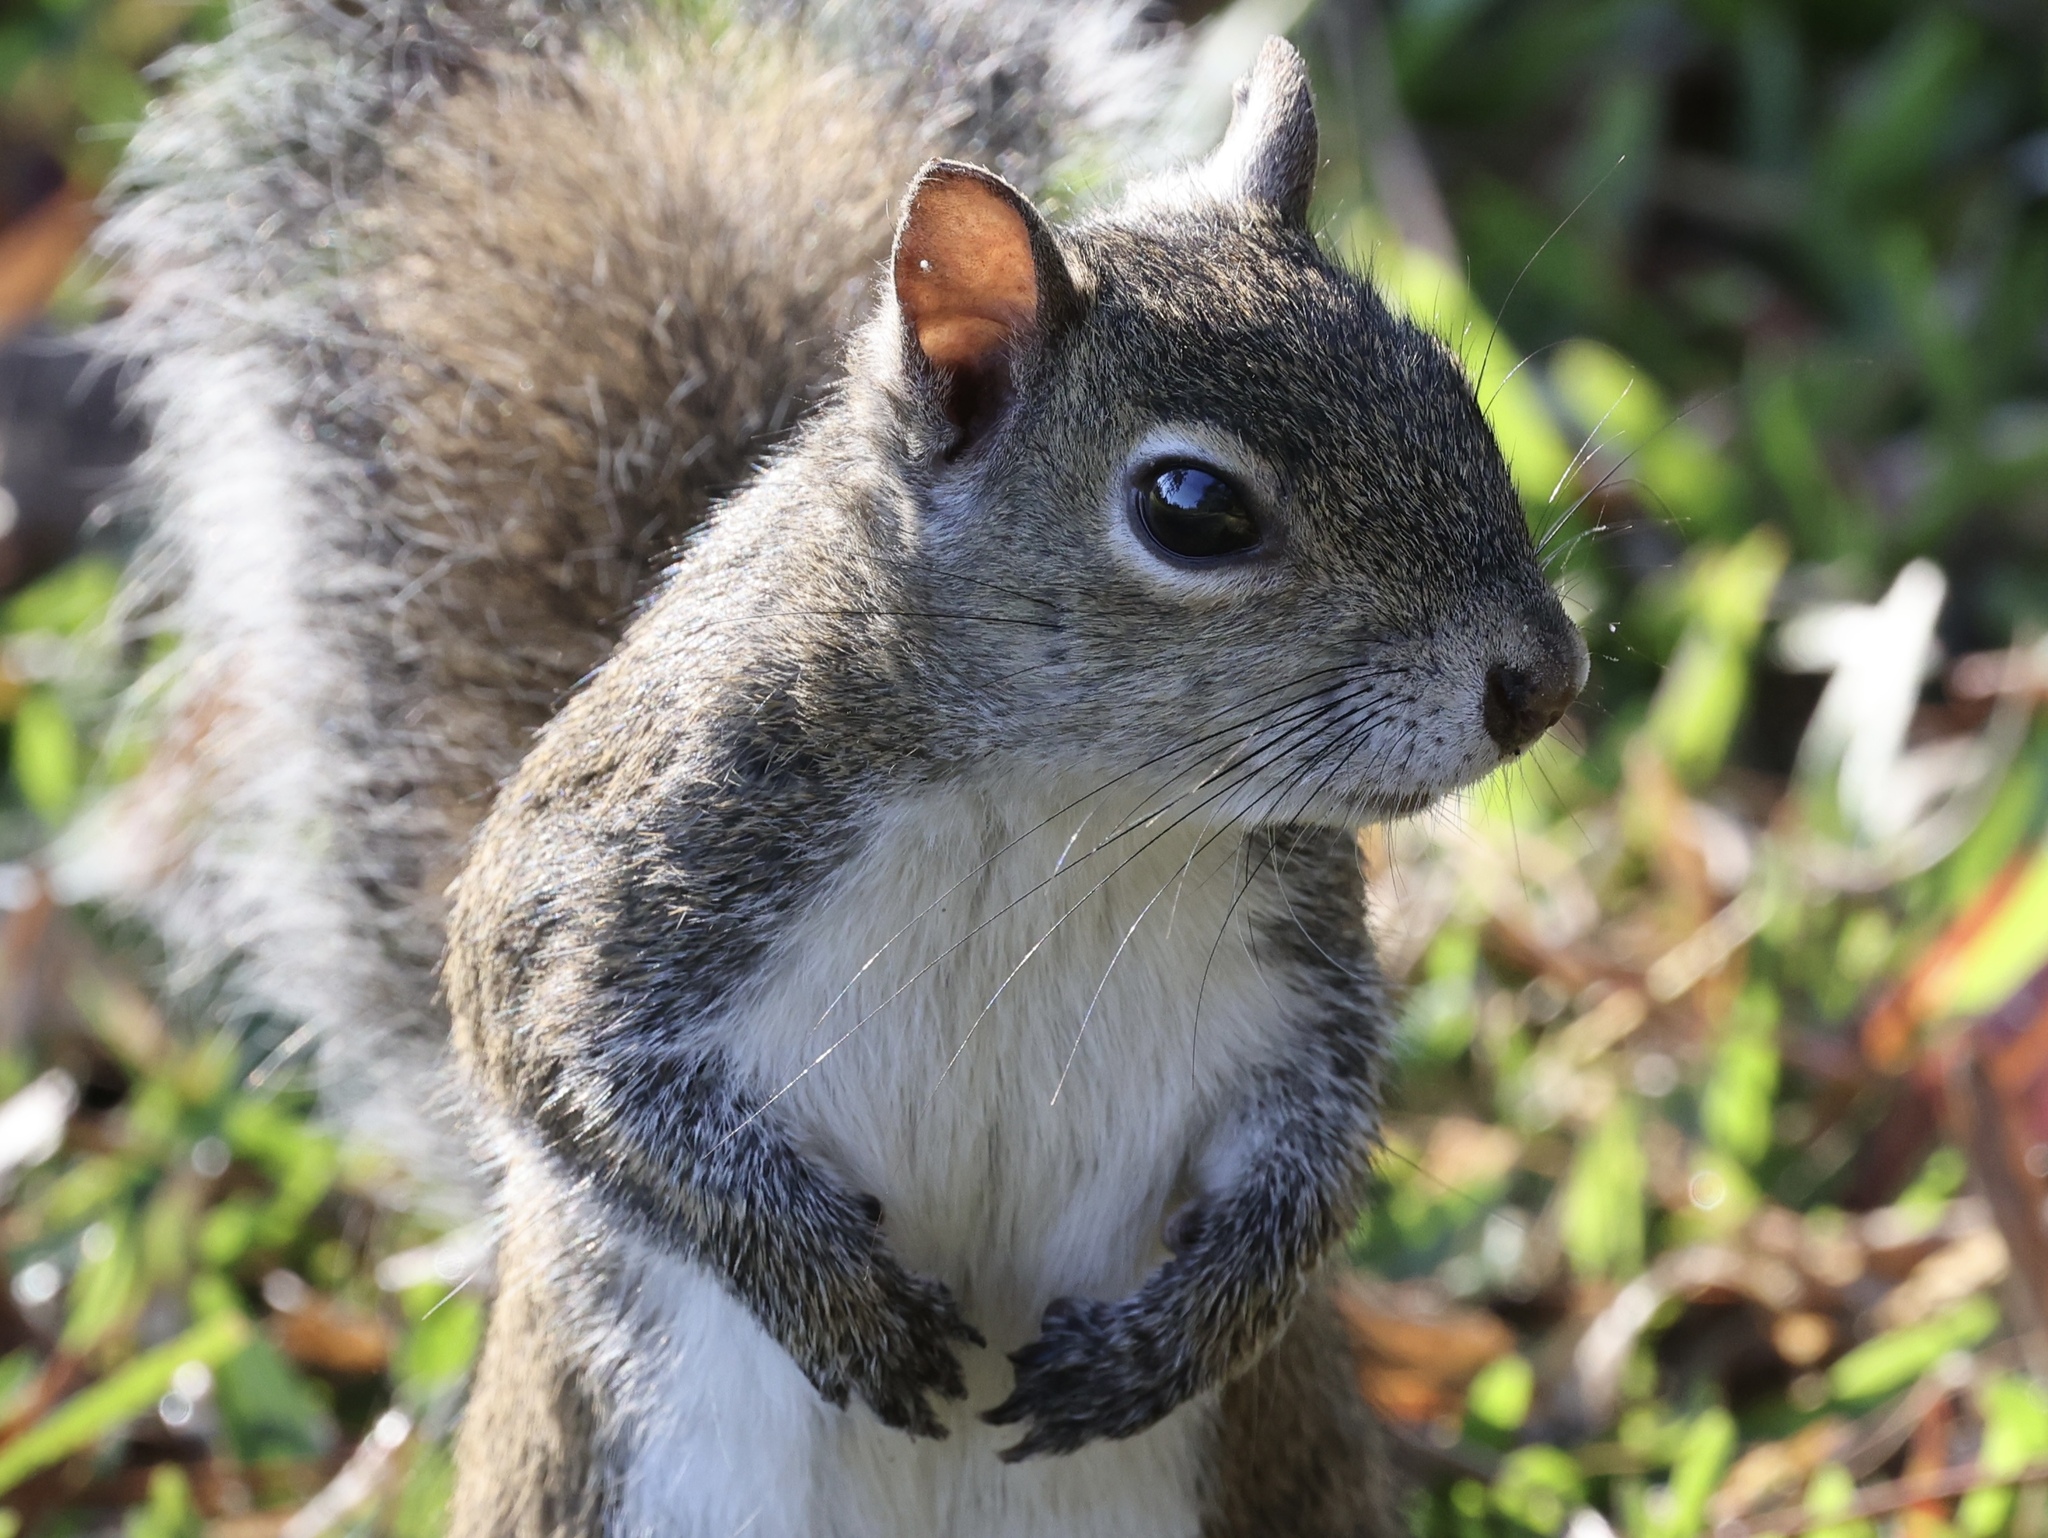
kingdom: Animalia
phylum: Chordata
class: Mammalia
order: Rodentia
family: Sciuridae
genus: Sciurus
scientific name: Sciurus carolinensis
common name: Eastern gray squirrel
